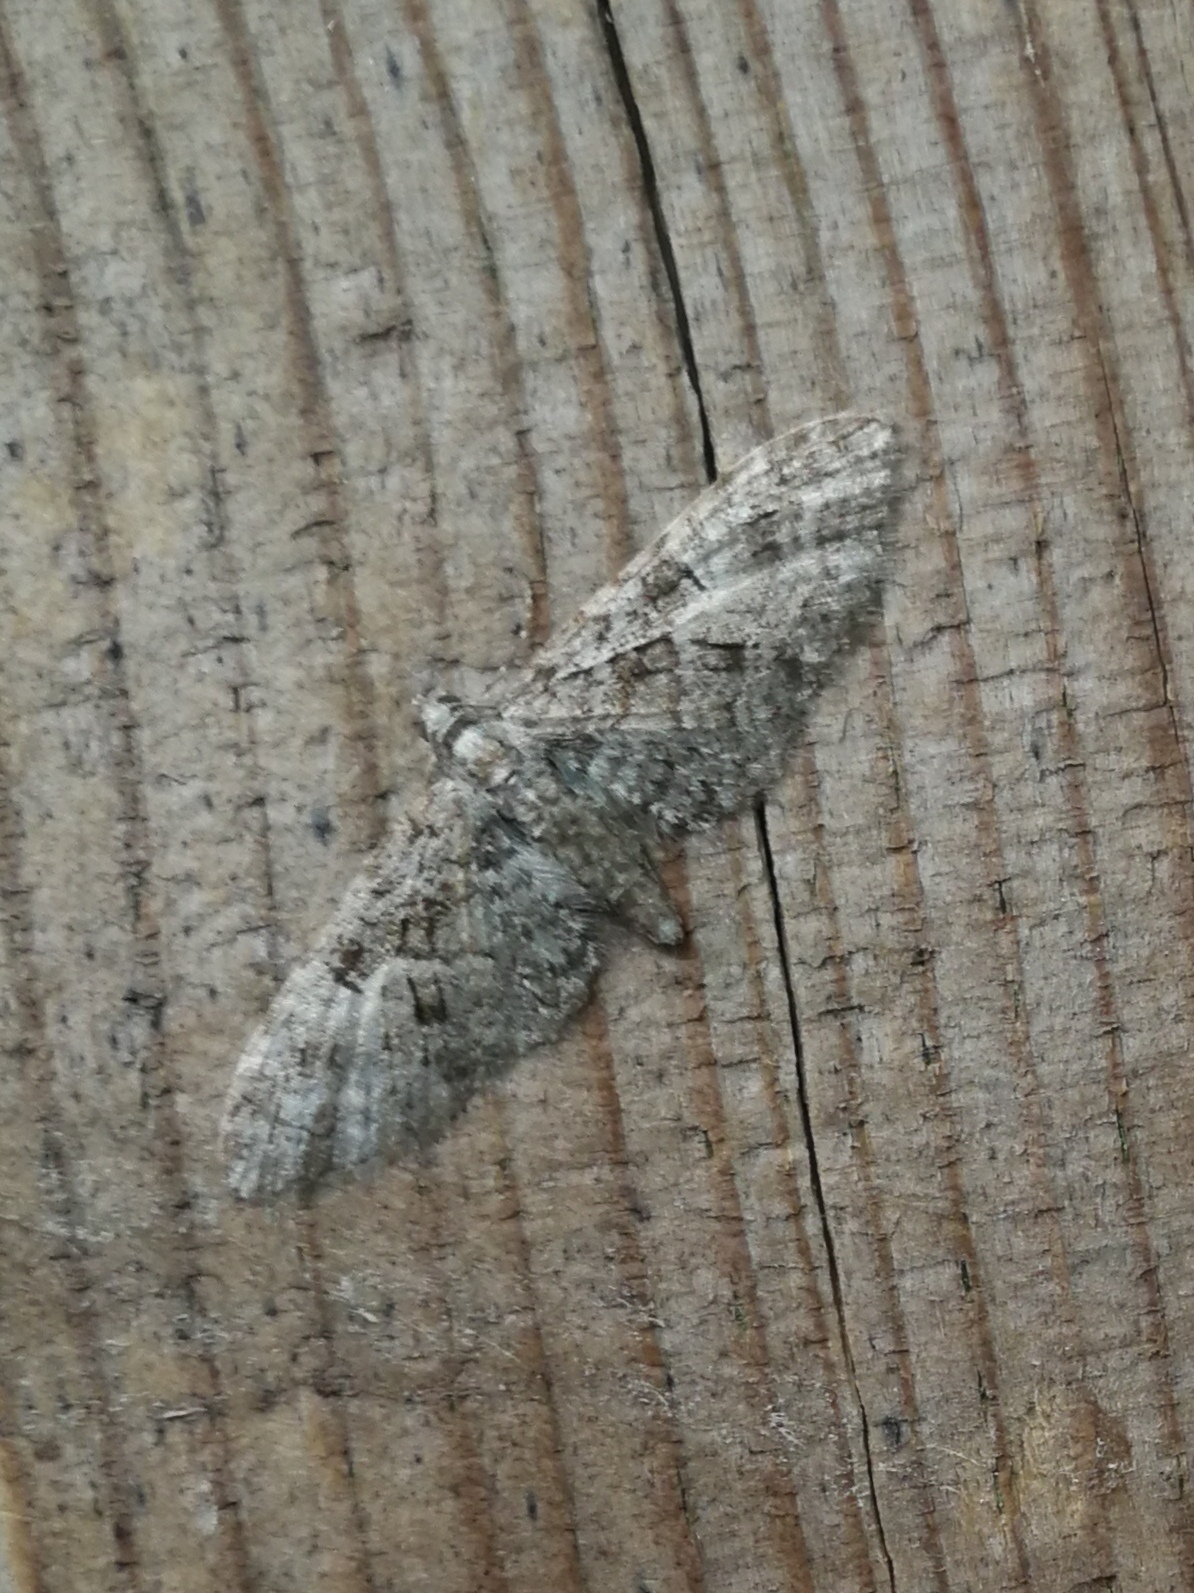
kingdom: Animalia
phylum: Arthropoda
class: Insecta
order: Lepidoptera
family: Geometridae
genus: Eupithecia
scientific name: Eupithecia abbreviata
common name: Brindled pug
